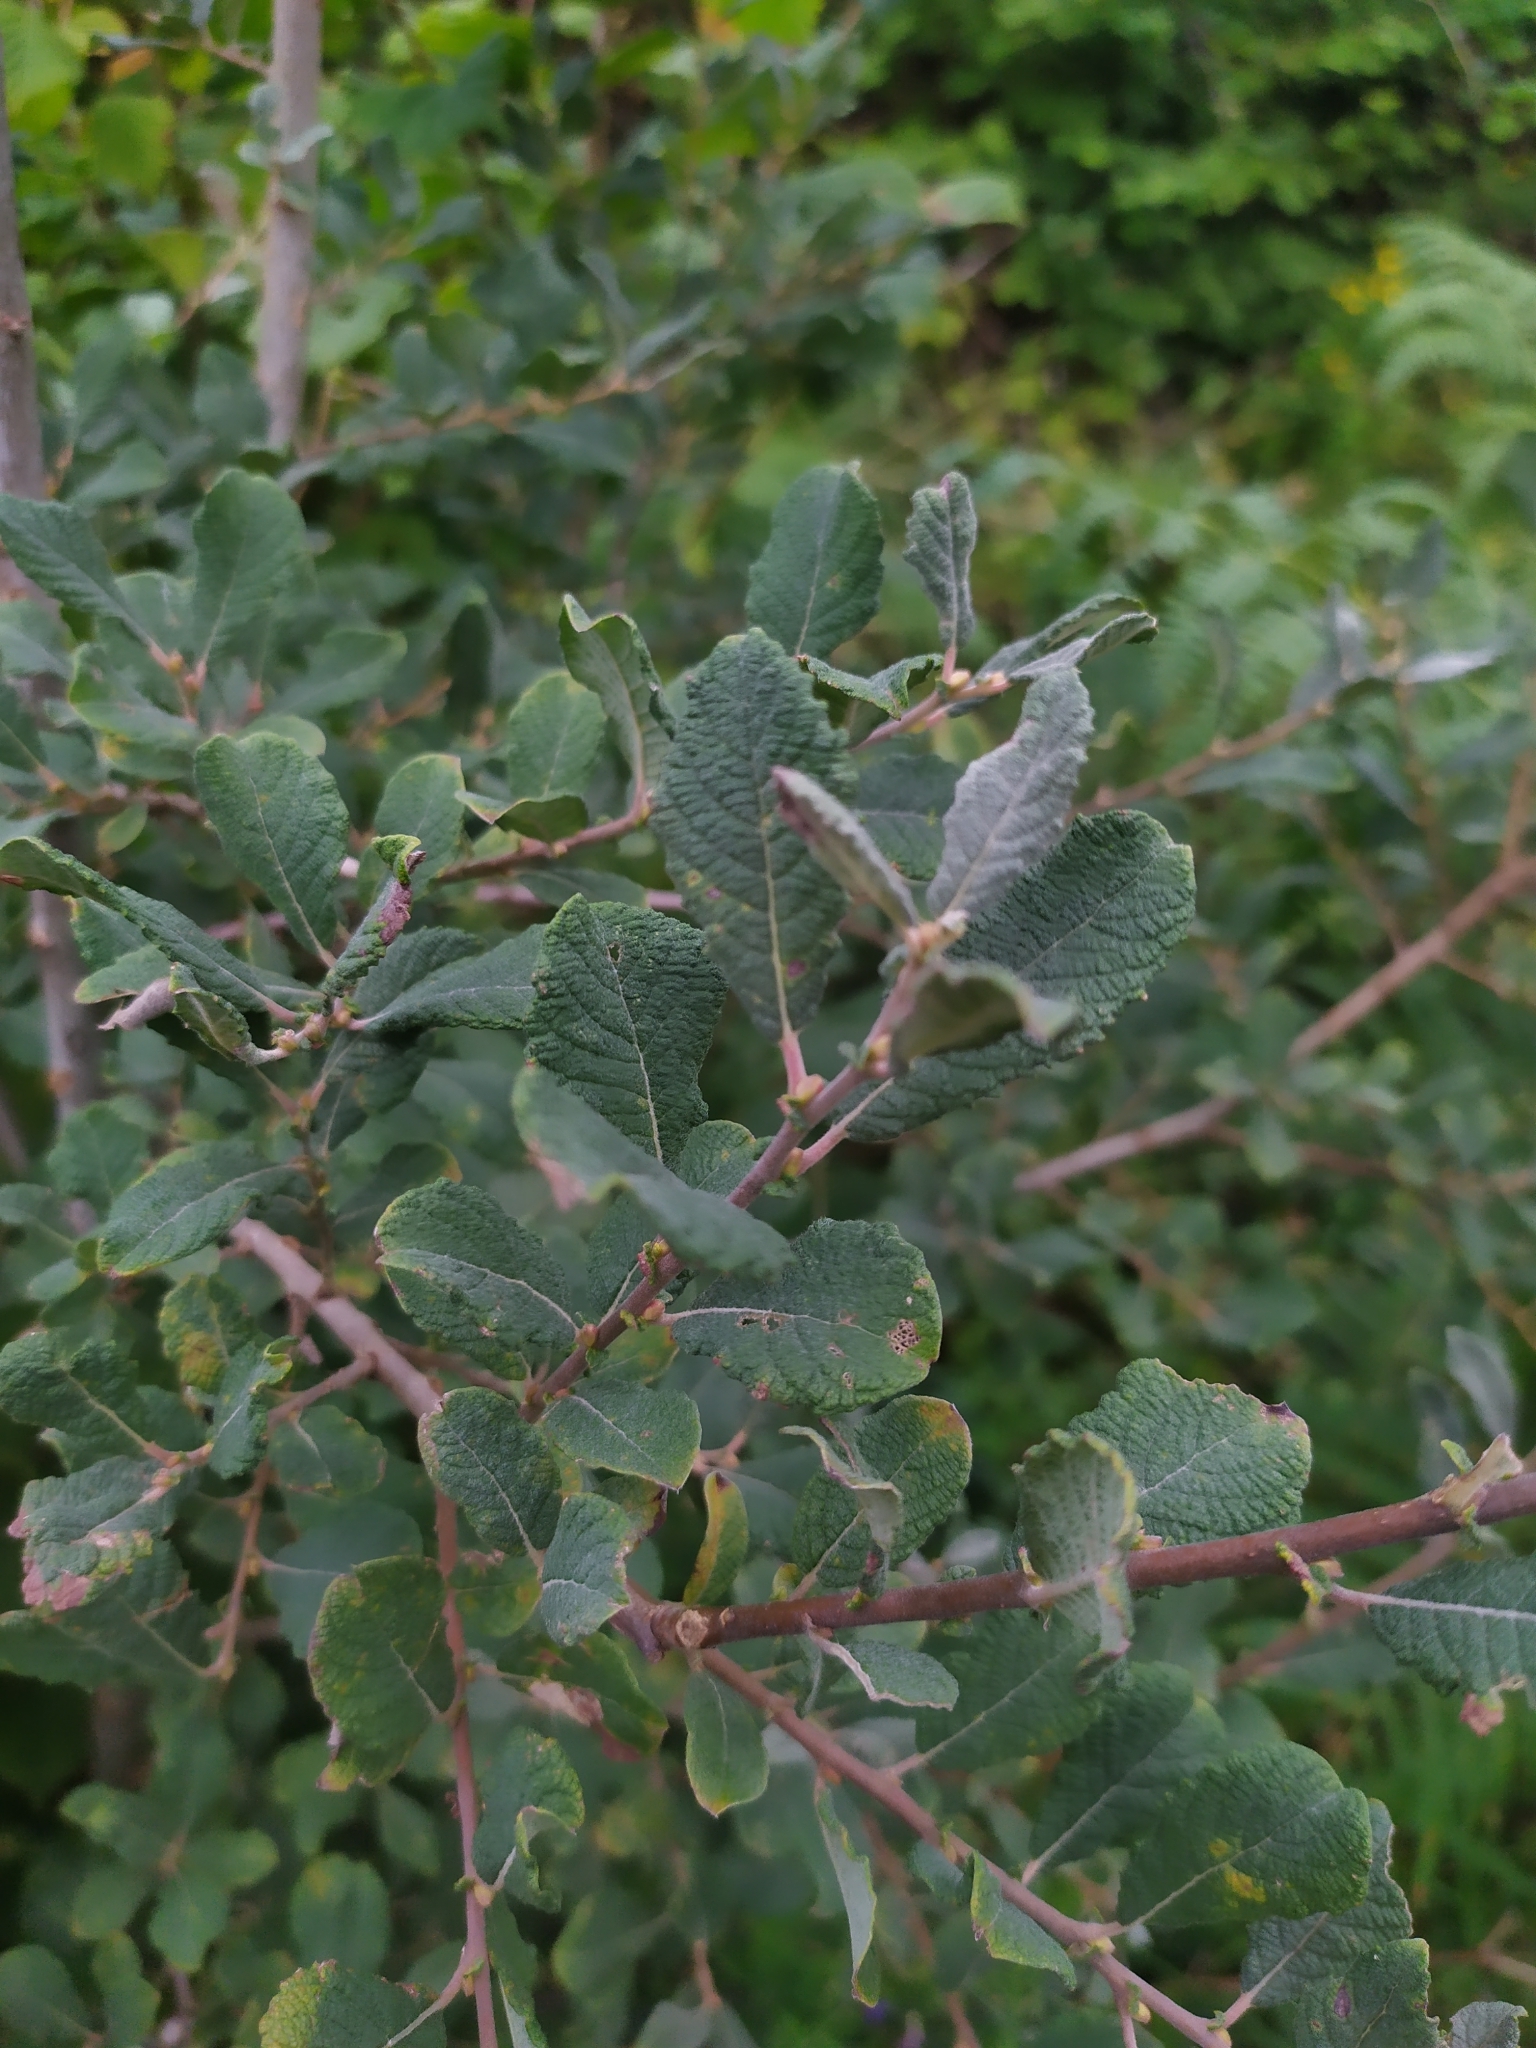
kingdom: Plantae
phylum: Tracheophyta
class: Magnoliopsida
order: Malpighiales
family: Salicaceae
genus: Salix
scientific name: Salix aurita
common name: Eared willow
